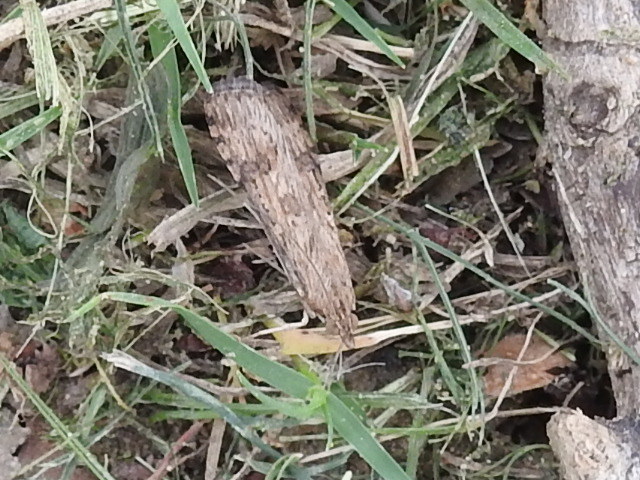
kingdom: Animalia
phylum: Arthropoda
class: Insecta
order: Lepidoptera
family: Crambidae
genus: Nomophila
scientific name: Nomophila nearctica
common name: American rush veneer
